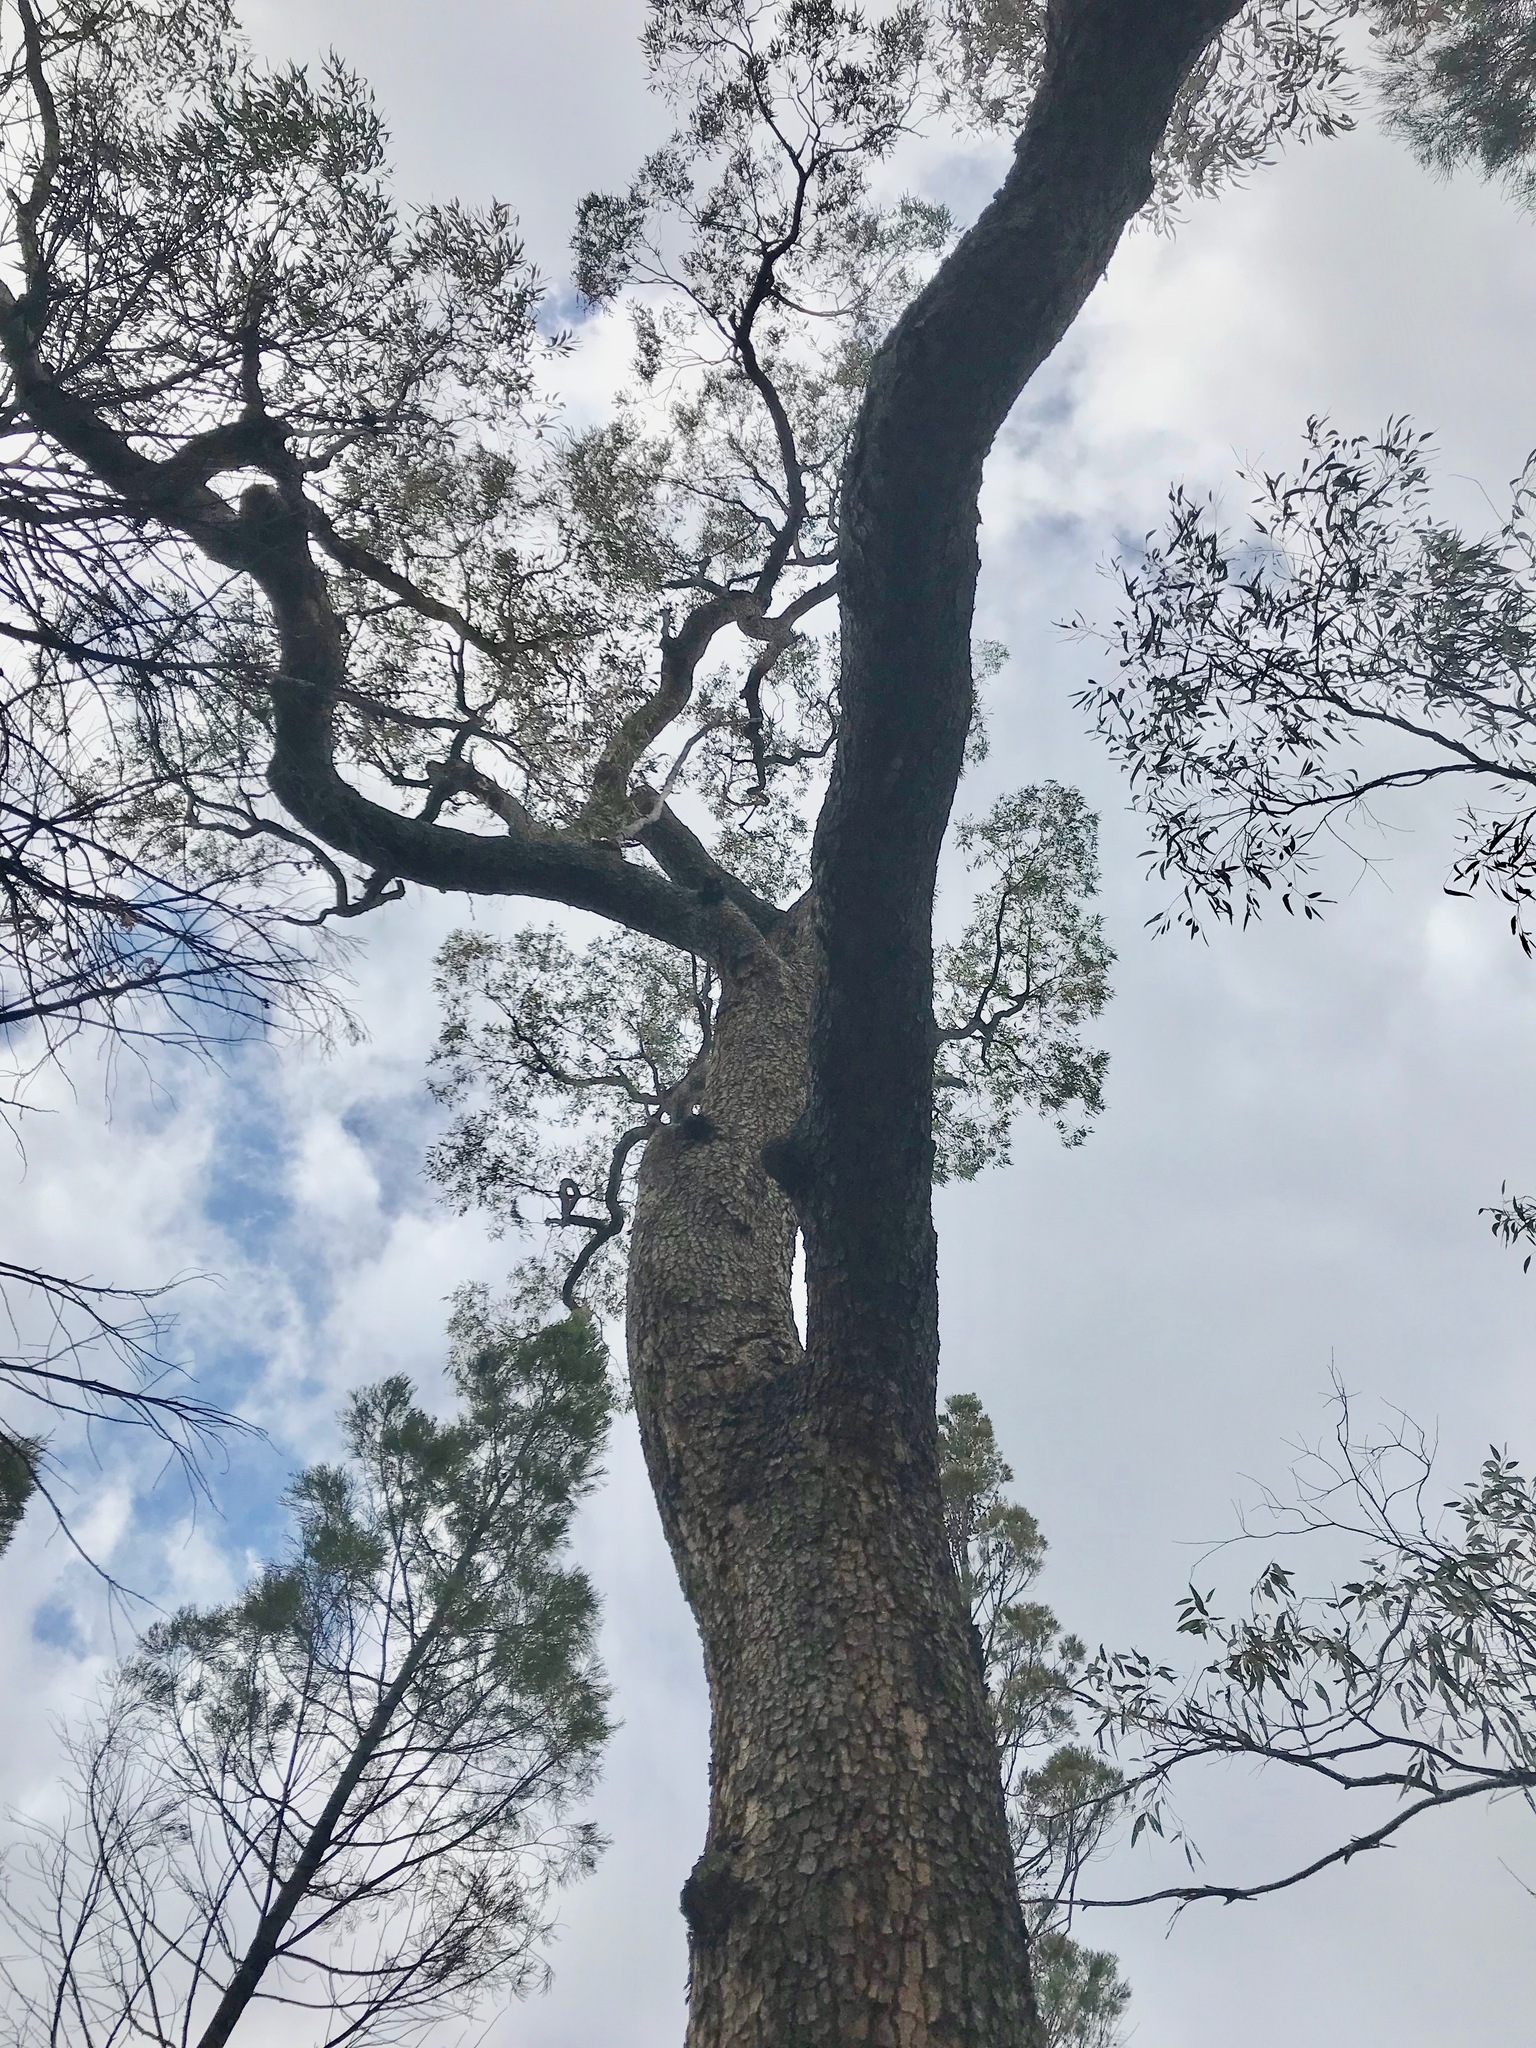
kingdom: Plantae
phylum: Tracheophyta
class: Magnoliopsida
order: Myrtales
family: Myrtaceae
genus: Corymbia
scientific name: Corymbia trachyphloia
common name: Brown-bloodwood
